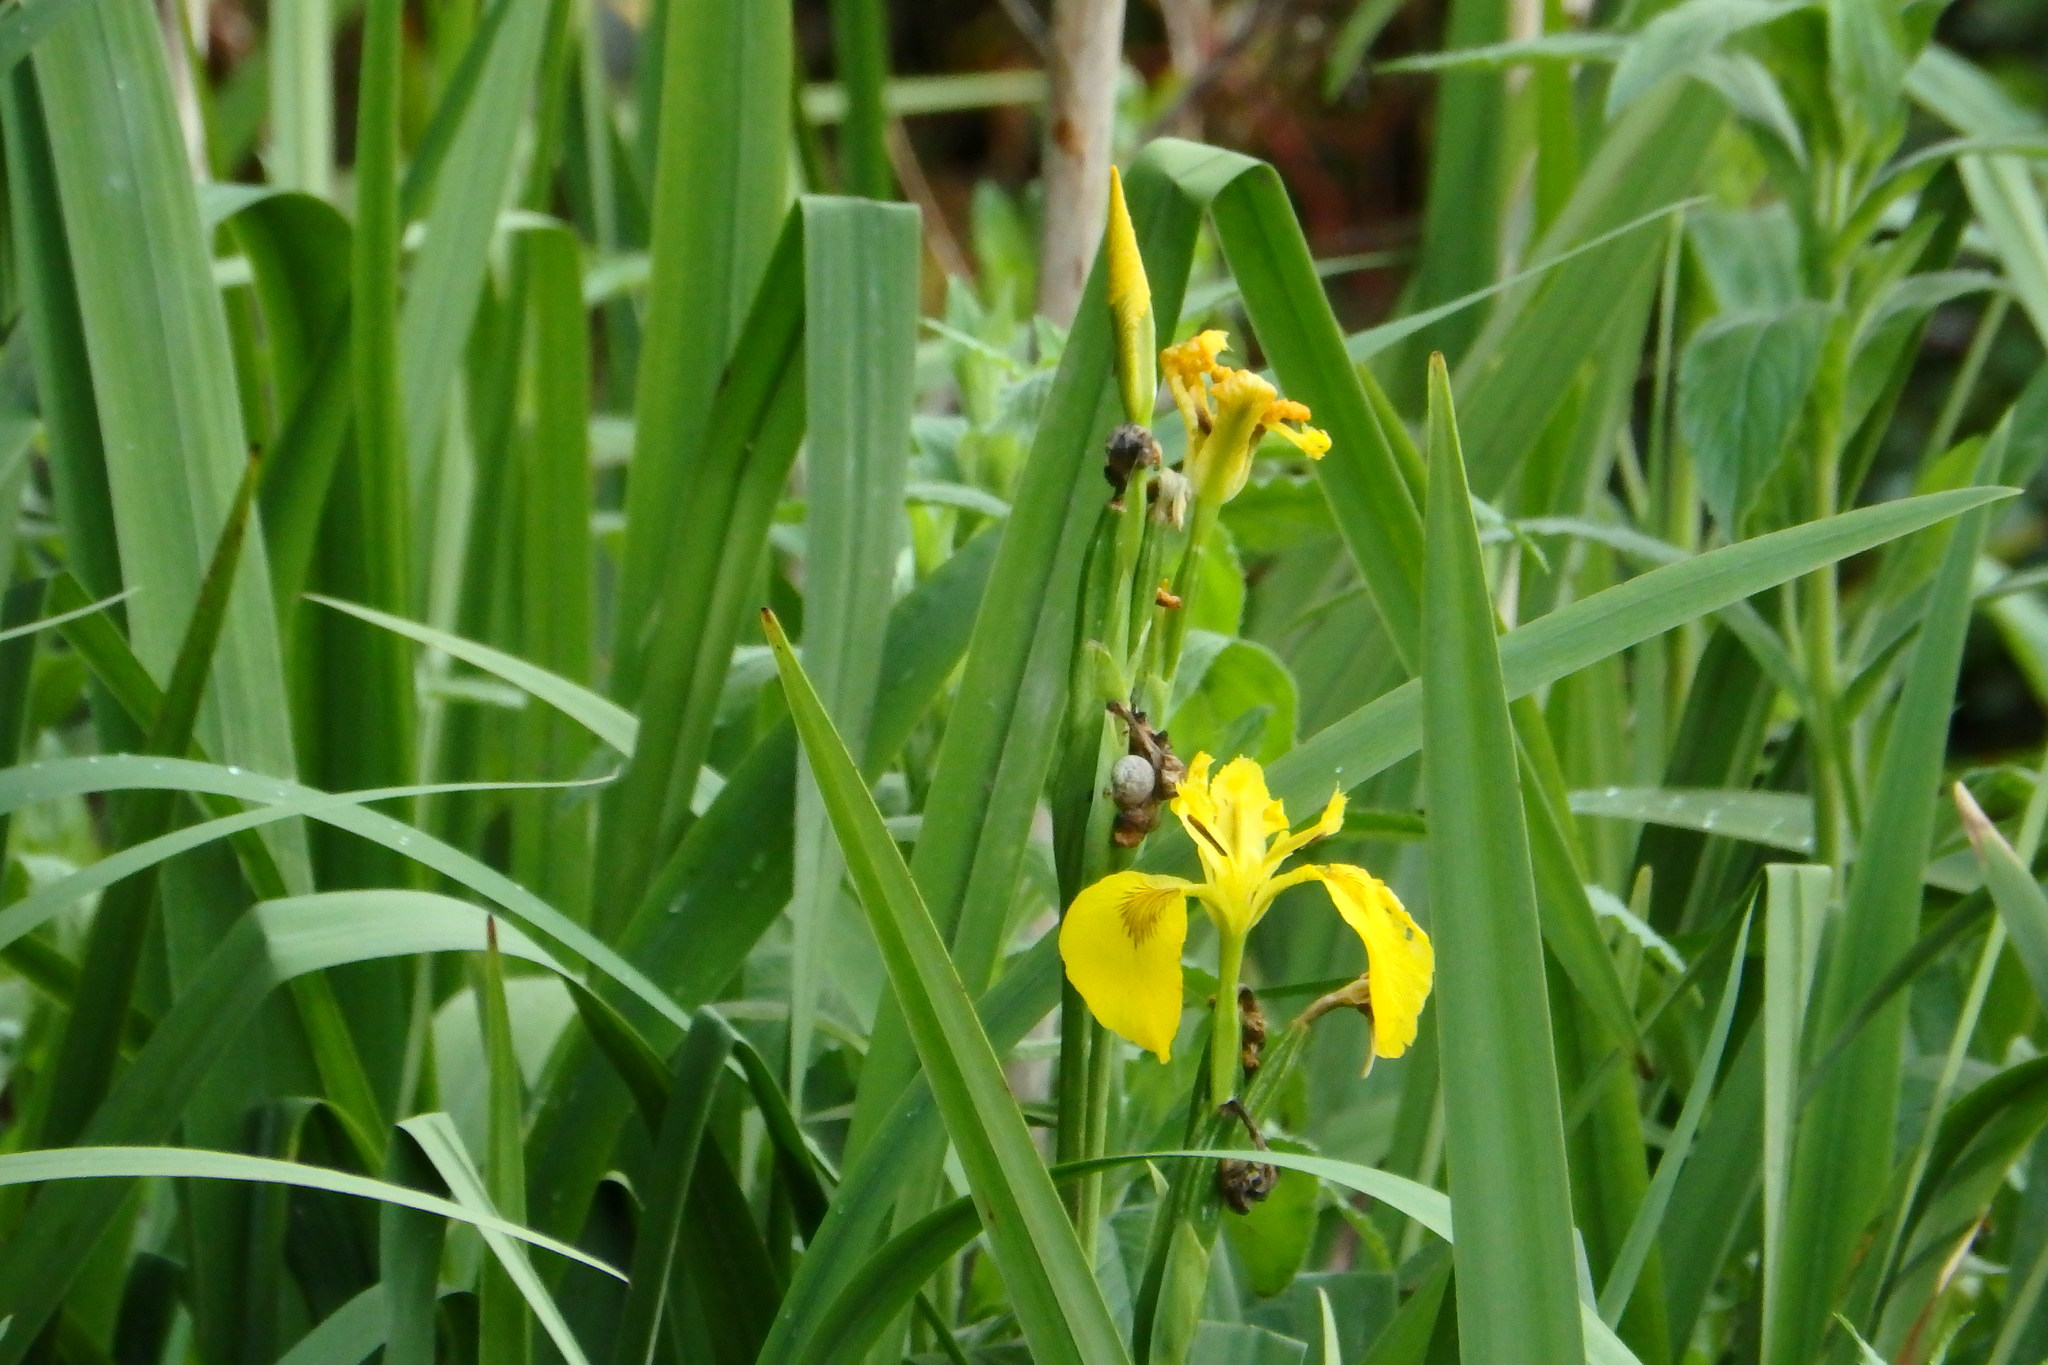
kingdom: Plantae
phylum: Tracheophyta
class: Liliopsida
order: Asparagales
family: Iridaceae
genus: Iris
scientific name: Iris pseudacorus
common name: Yellow flag
